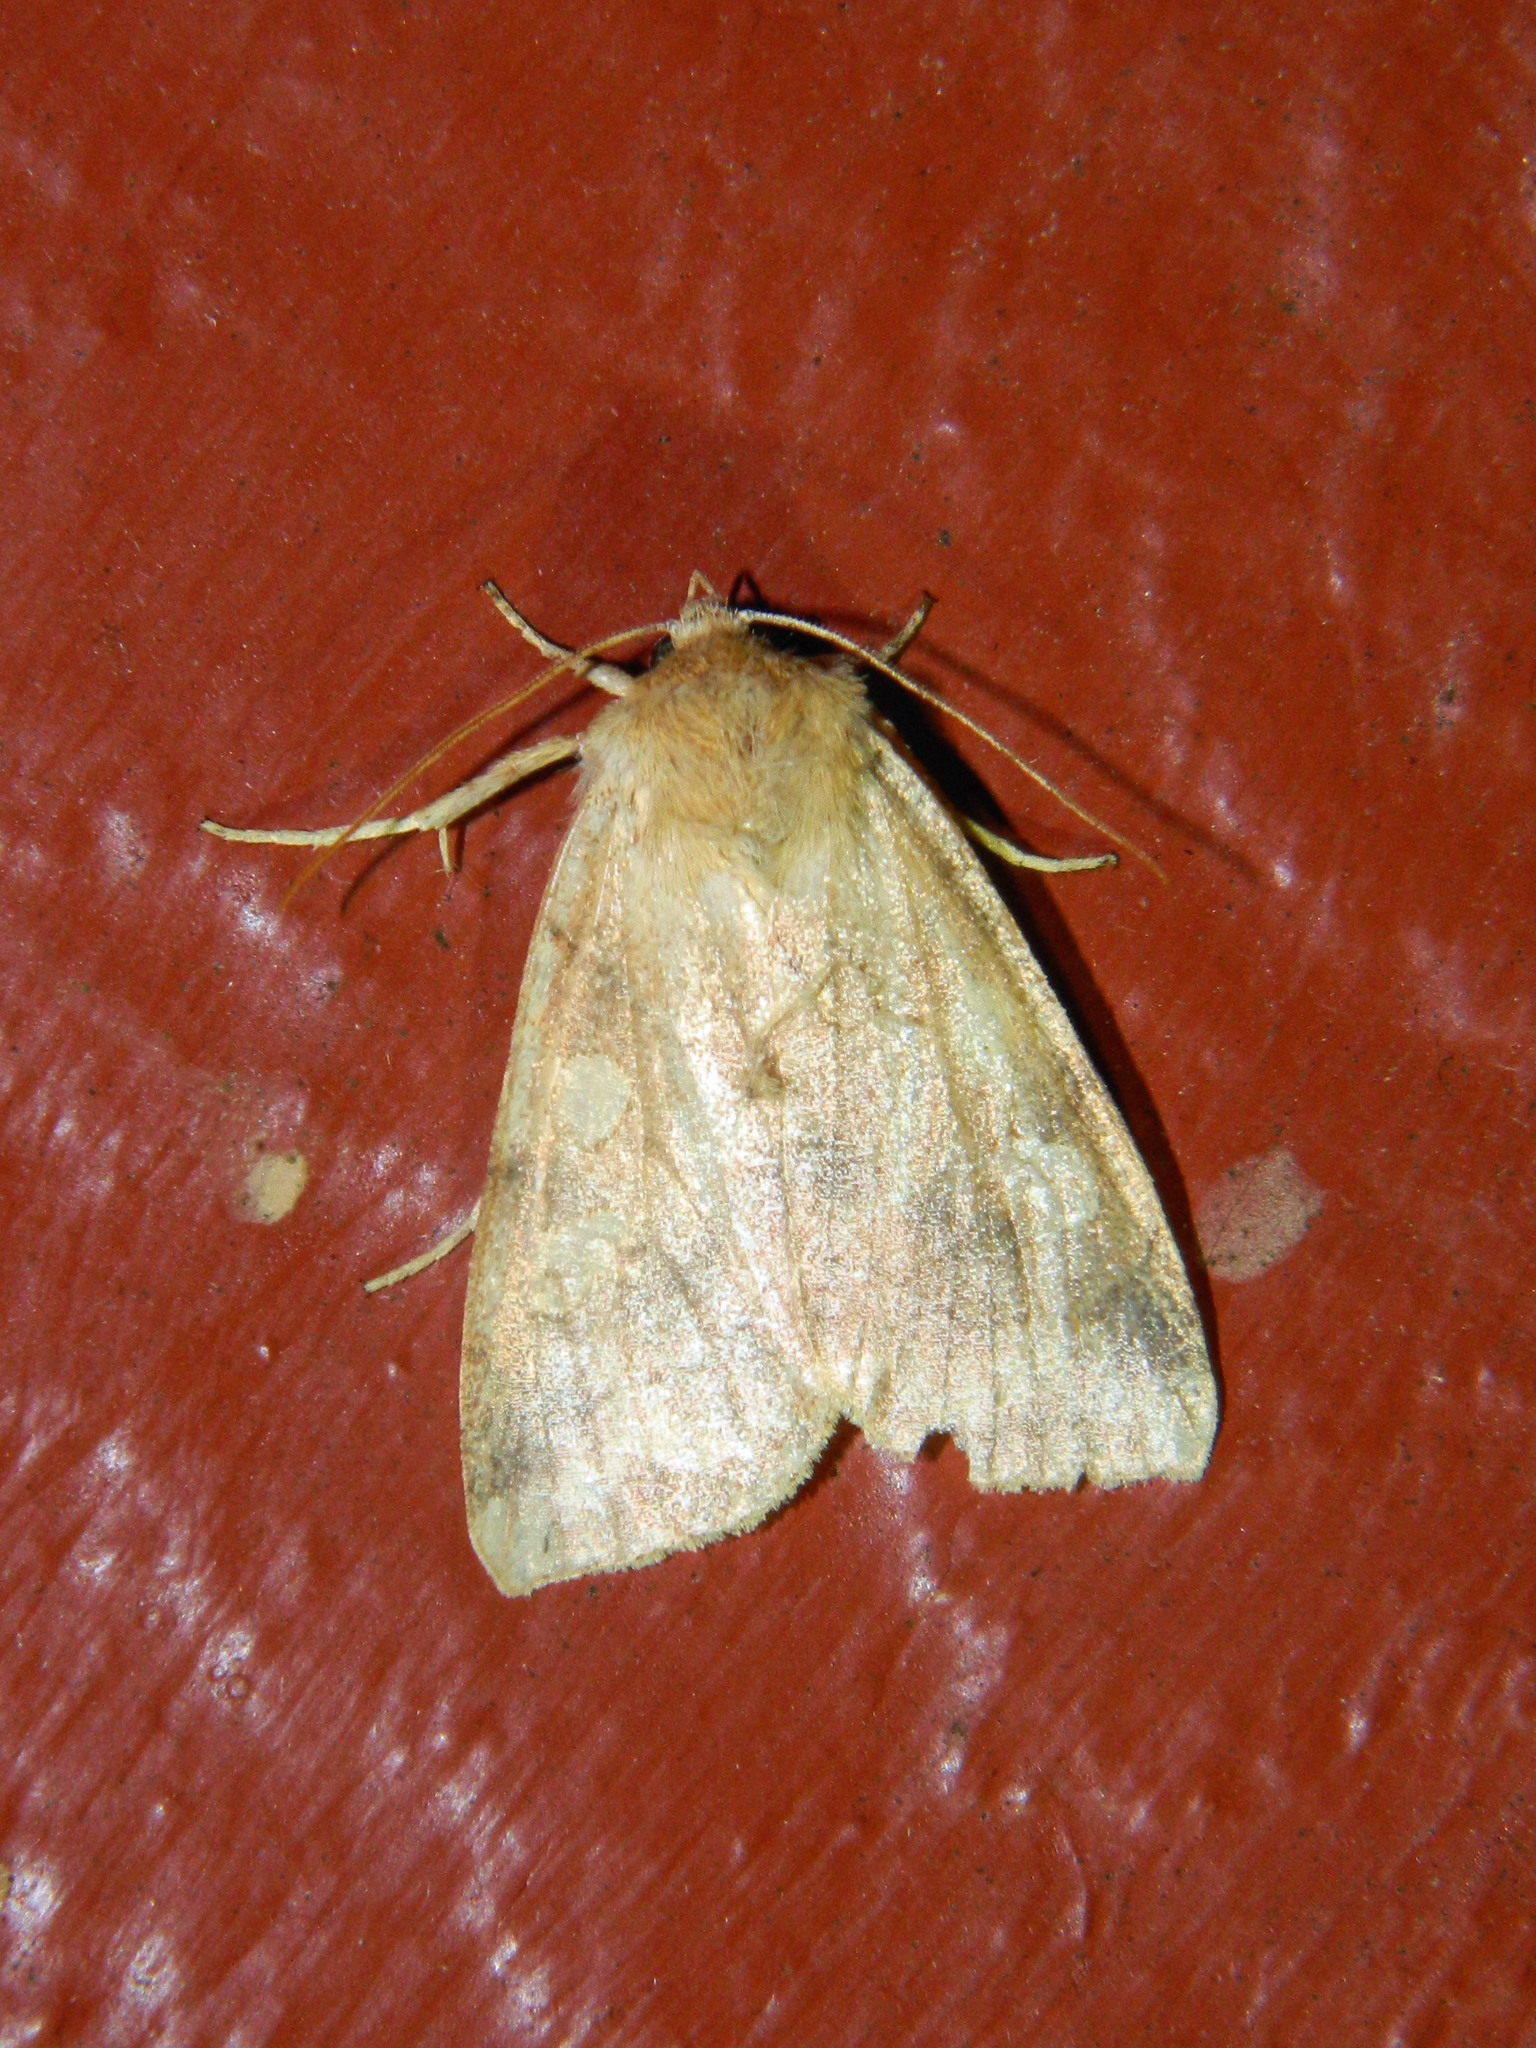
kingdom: Animalia
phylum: Arthropoda
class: Insecta
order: Lepidoptera
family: Noctuidae
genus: Enargia
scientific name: Enargia decolor
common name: Aspen twoleaf tier moth
